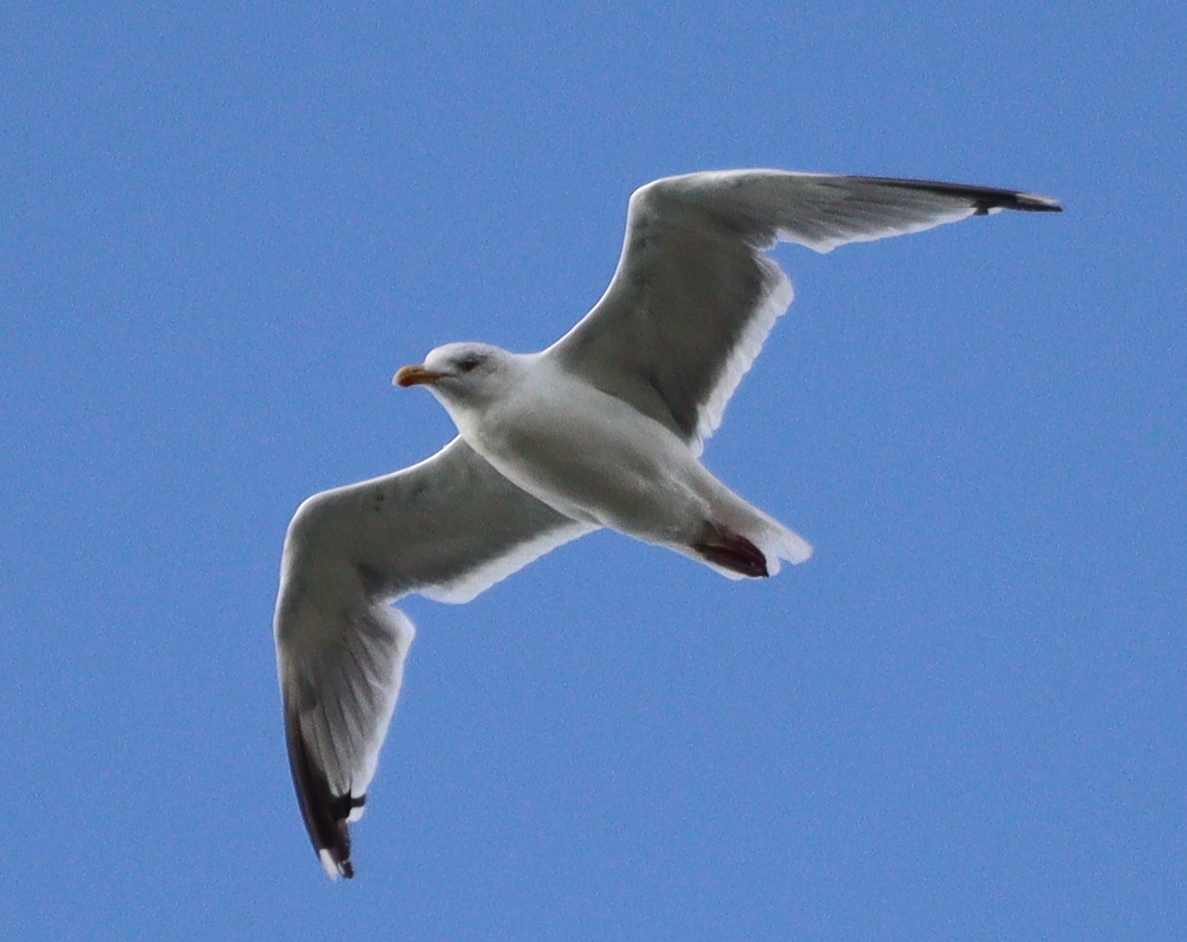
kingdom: Animalia
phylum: Chordata
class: Aves
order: Charadriiformes
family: Laridae
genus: Larus
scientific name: Larus argentatus
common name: Herring gull
